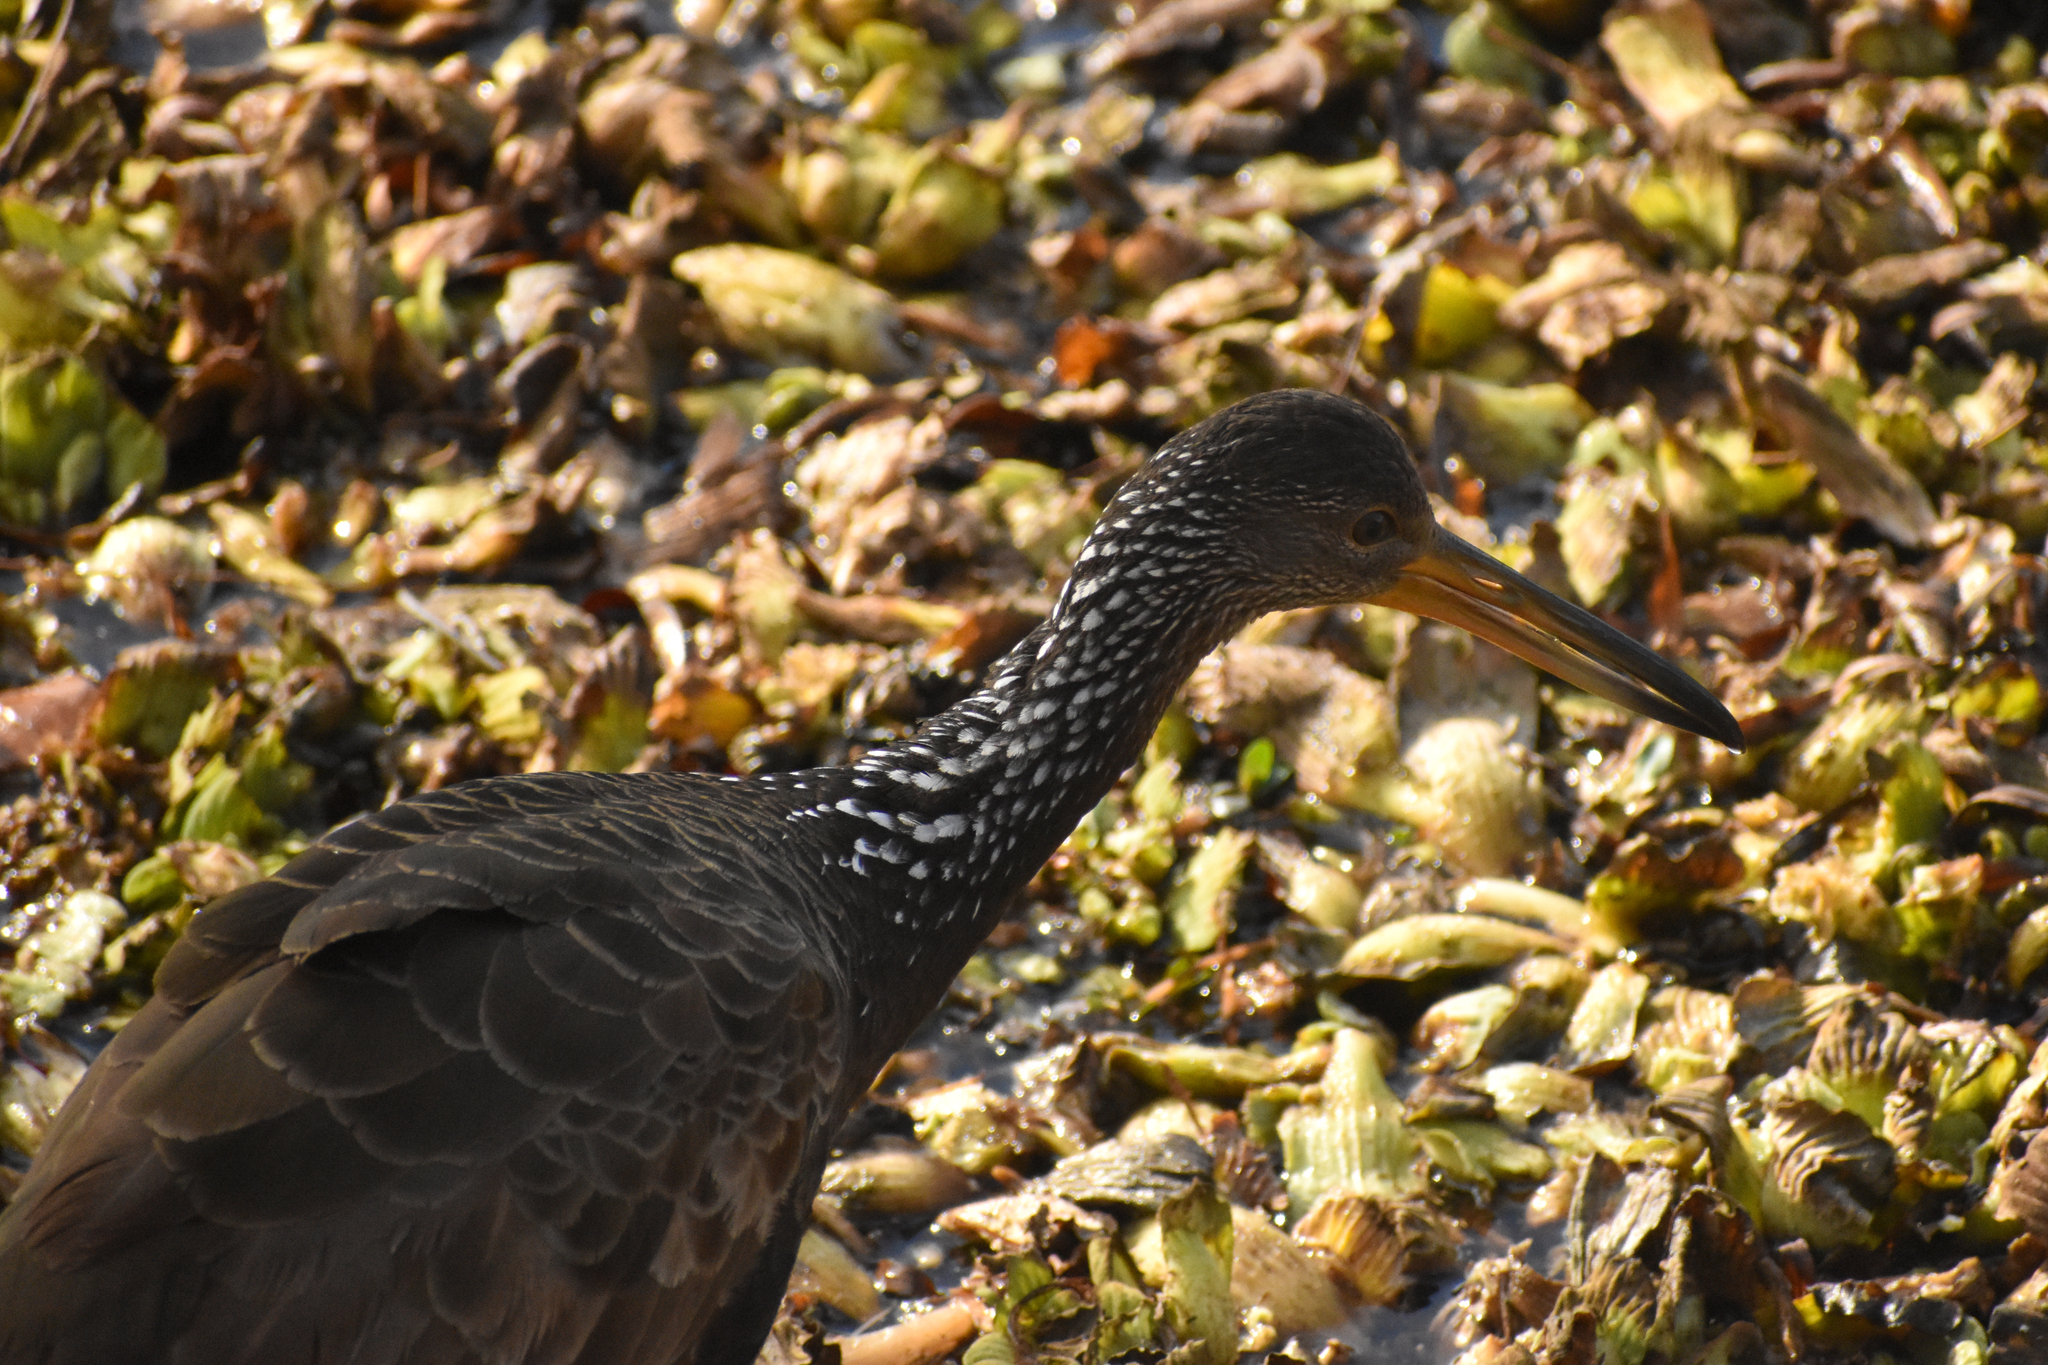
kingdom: Animalia
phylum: Chordata
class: Aves
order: Gruiformes
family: Aramidae
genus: Aramus
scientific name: Aramus guarauna
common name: Limpkin
